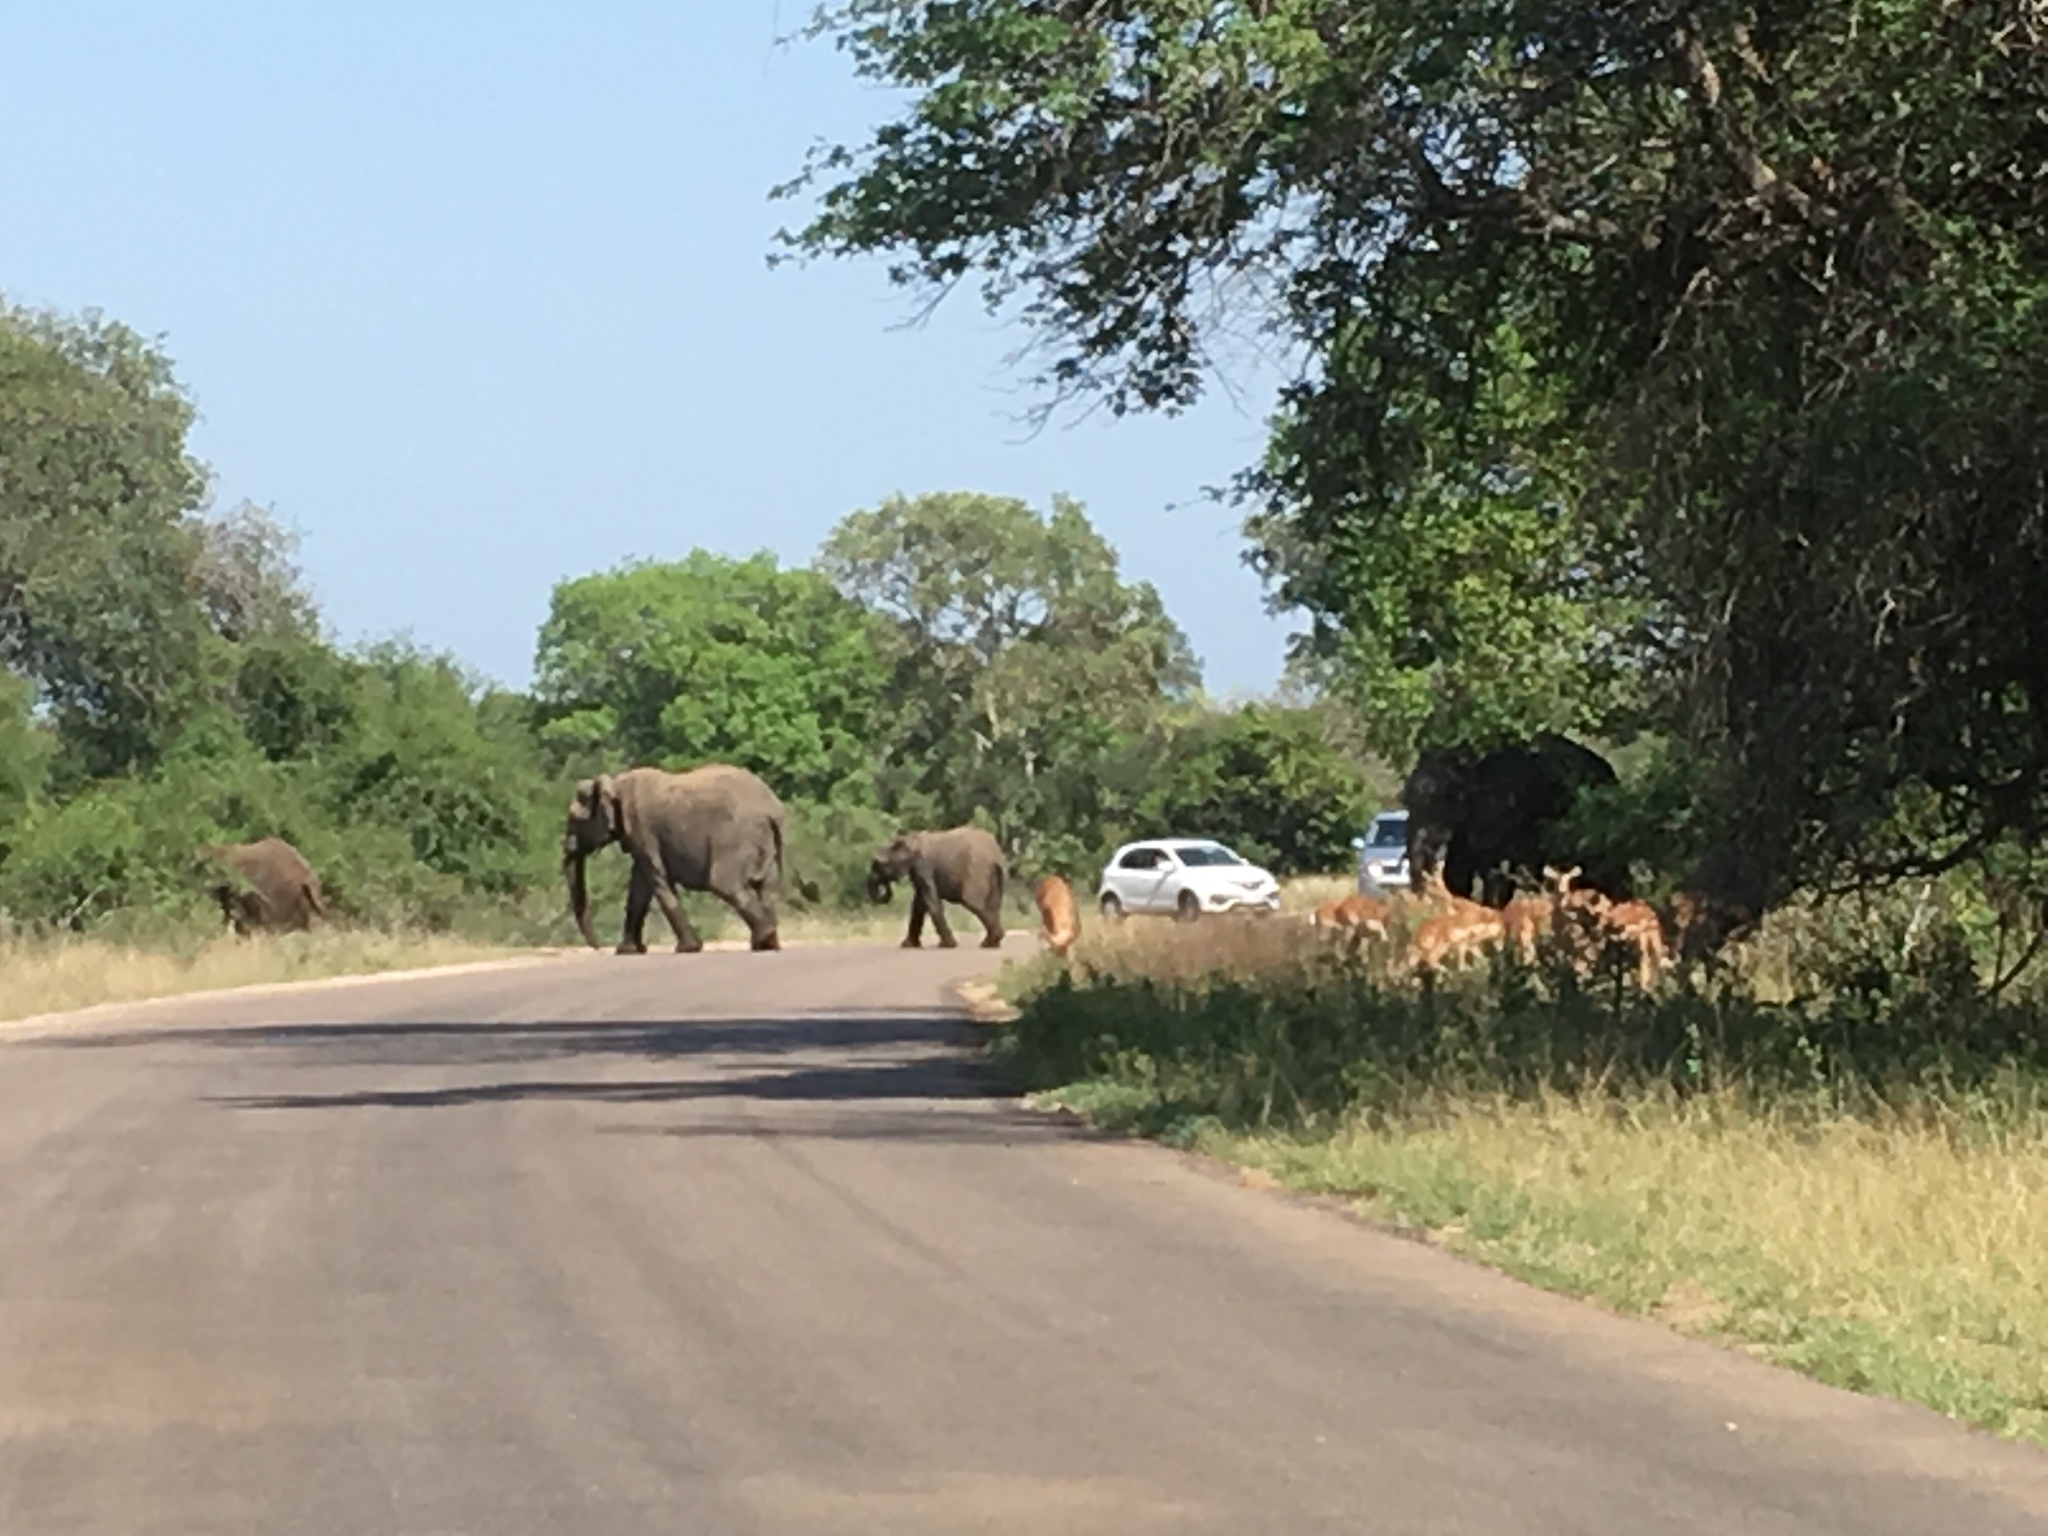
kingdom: Animalia
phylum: Chordata
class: Mammalia
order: Proboscidea
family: Elephantidae
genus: Loxodonta
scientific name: Loxodonta africana
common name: African elephant
